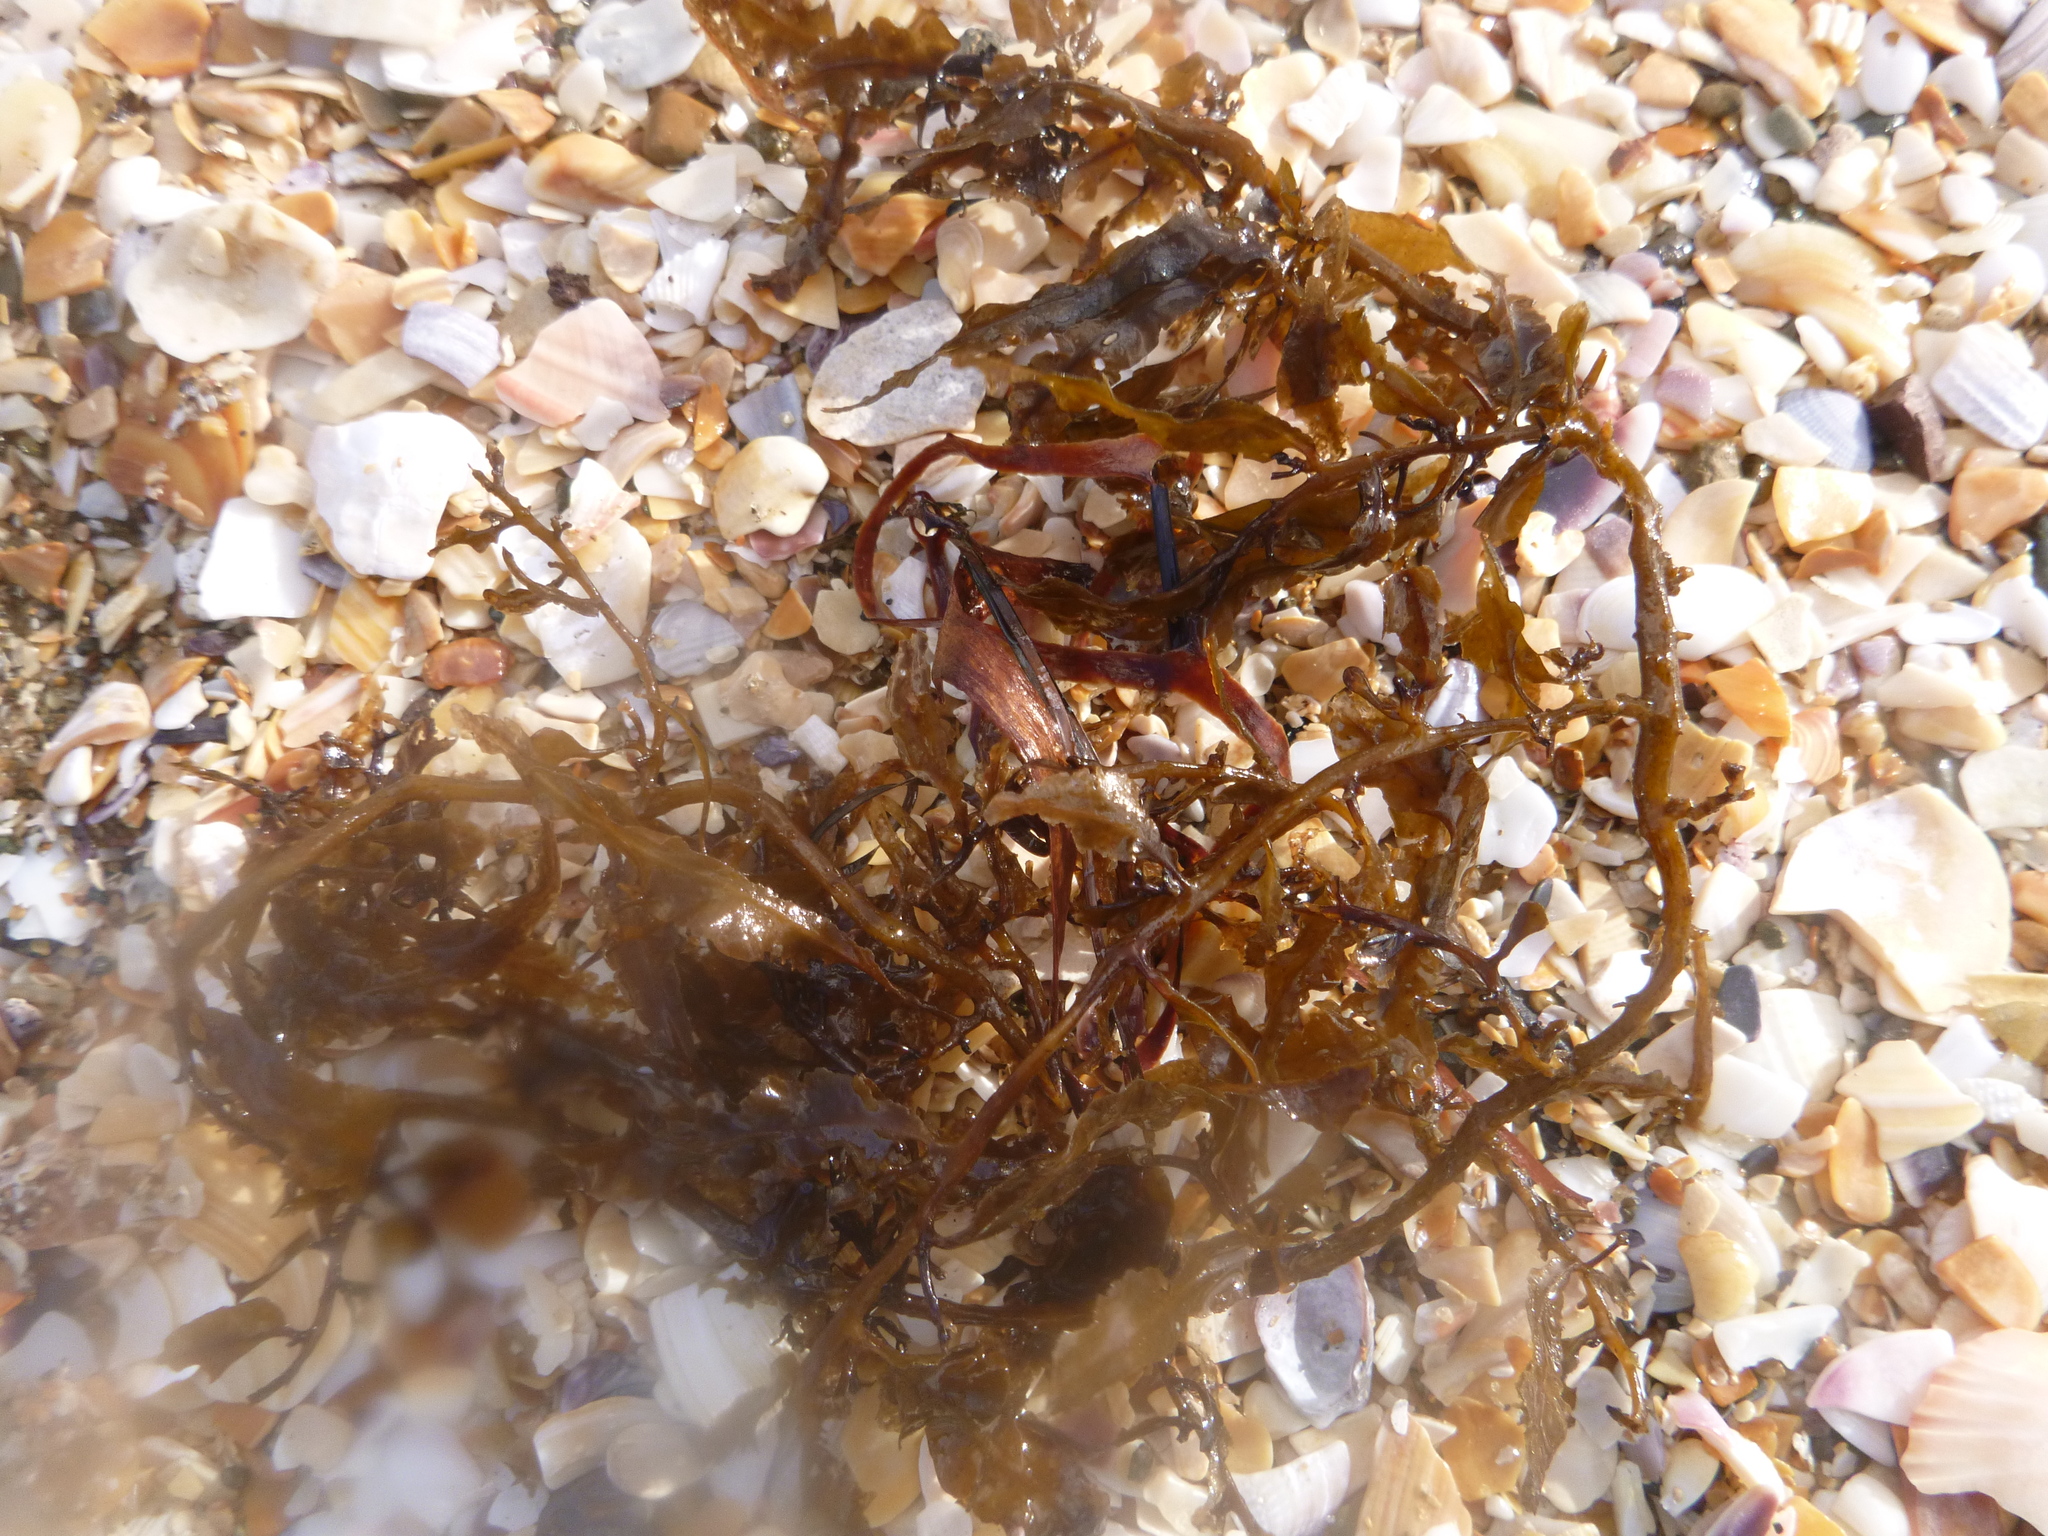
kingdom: Chromista
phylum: Ochrophyta
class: Phaeophyceae
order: Fucales
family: Sargassaceae
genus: Sargassum
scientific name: Sargassum sinclairii
